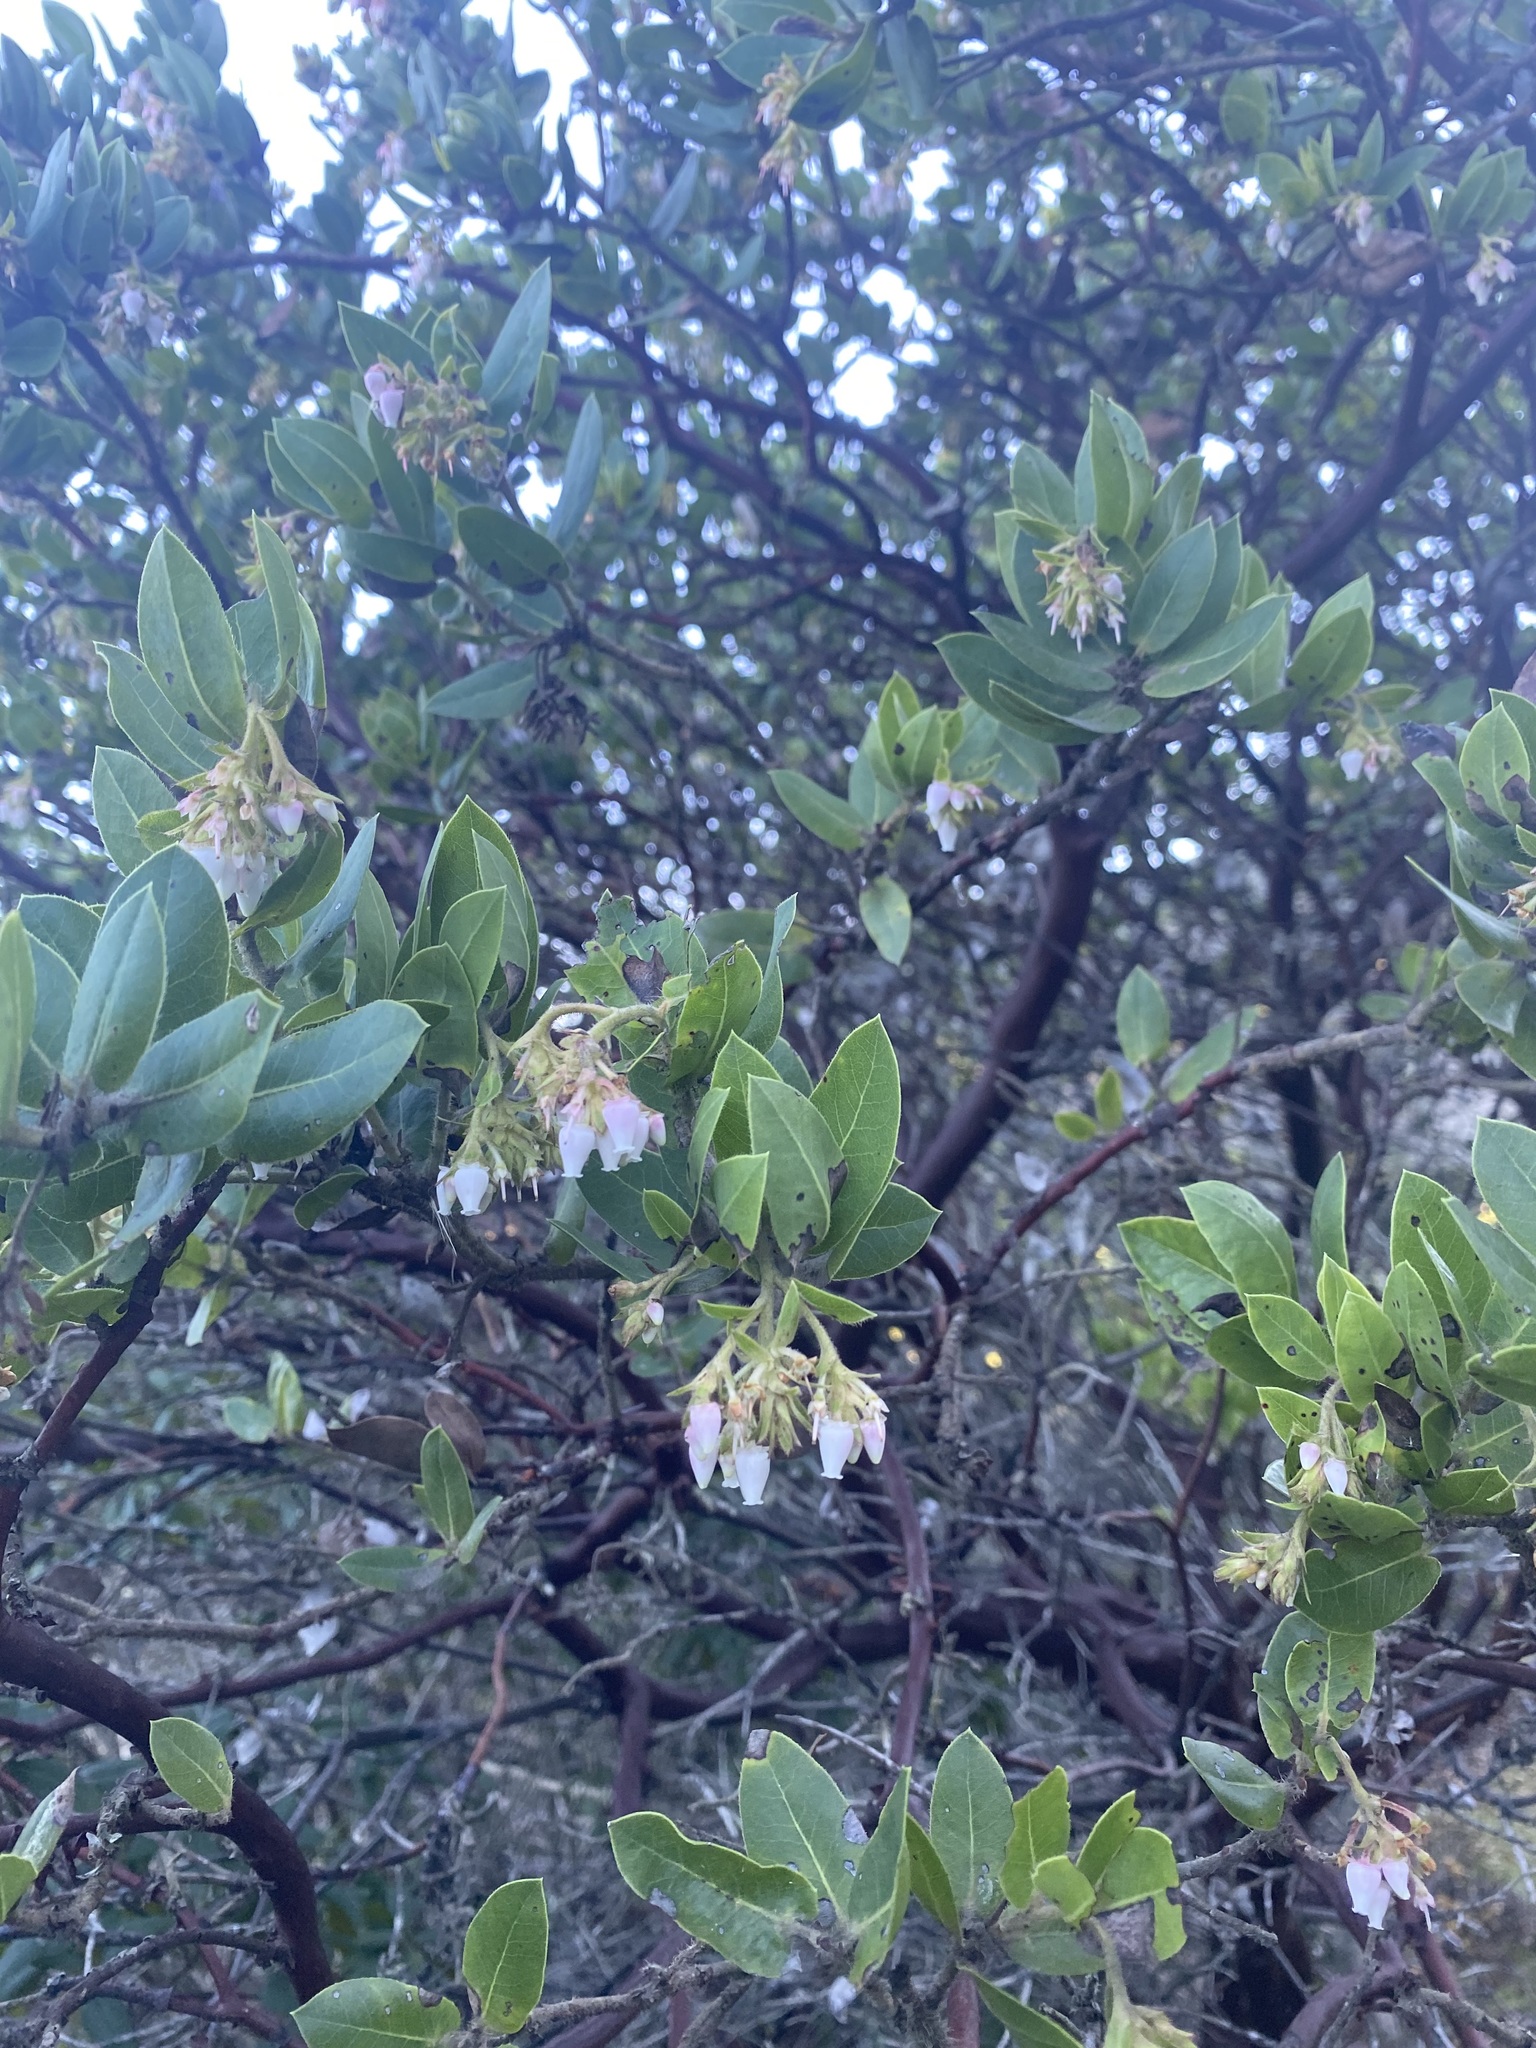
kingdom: Plantae
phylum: Tracheophyta
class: Magnoliopsida
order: Ericales
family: Ericaceae
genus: Arctostaphylos
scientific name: Arctostaphylos montaraensis
